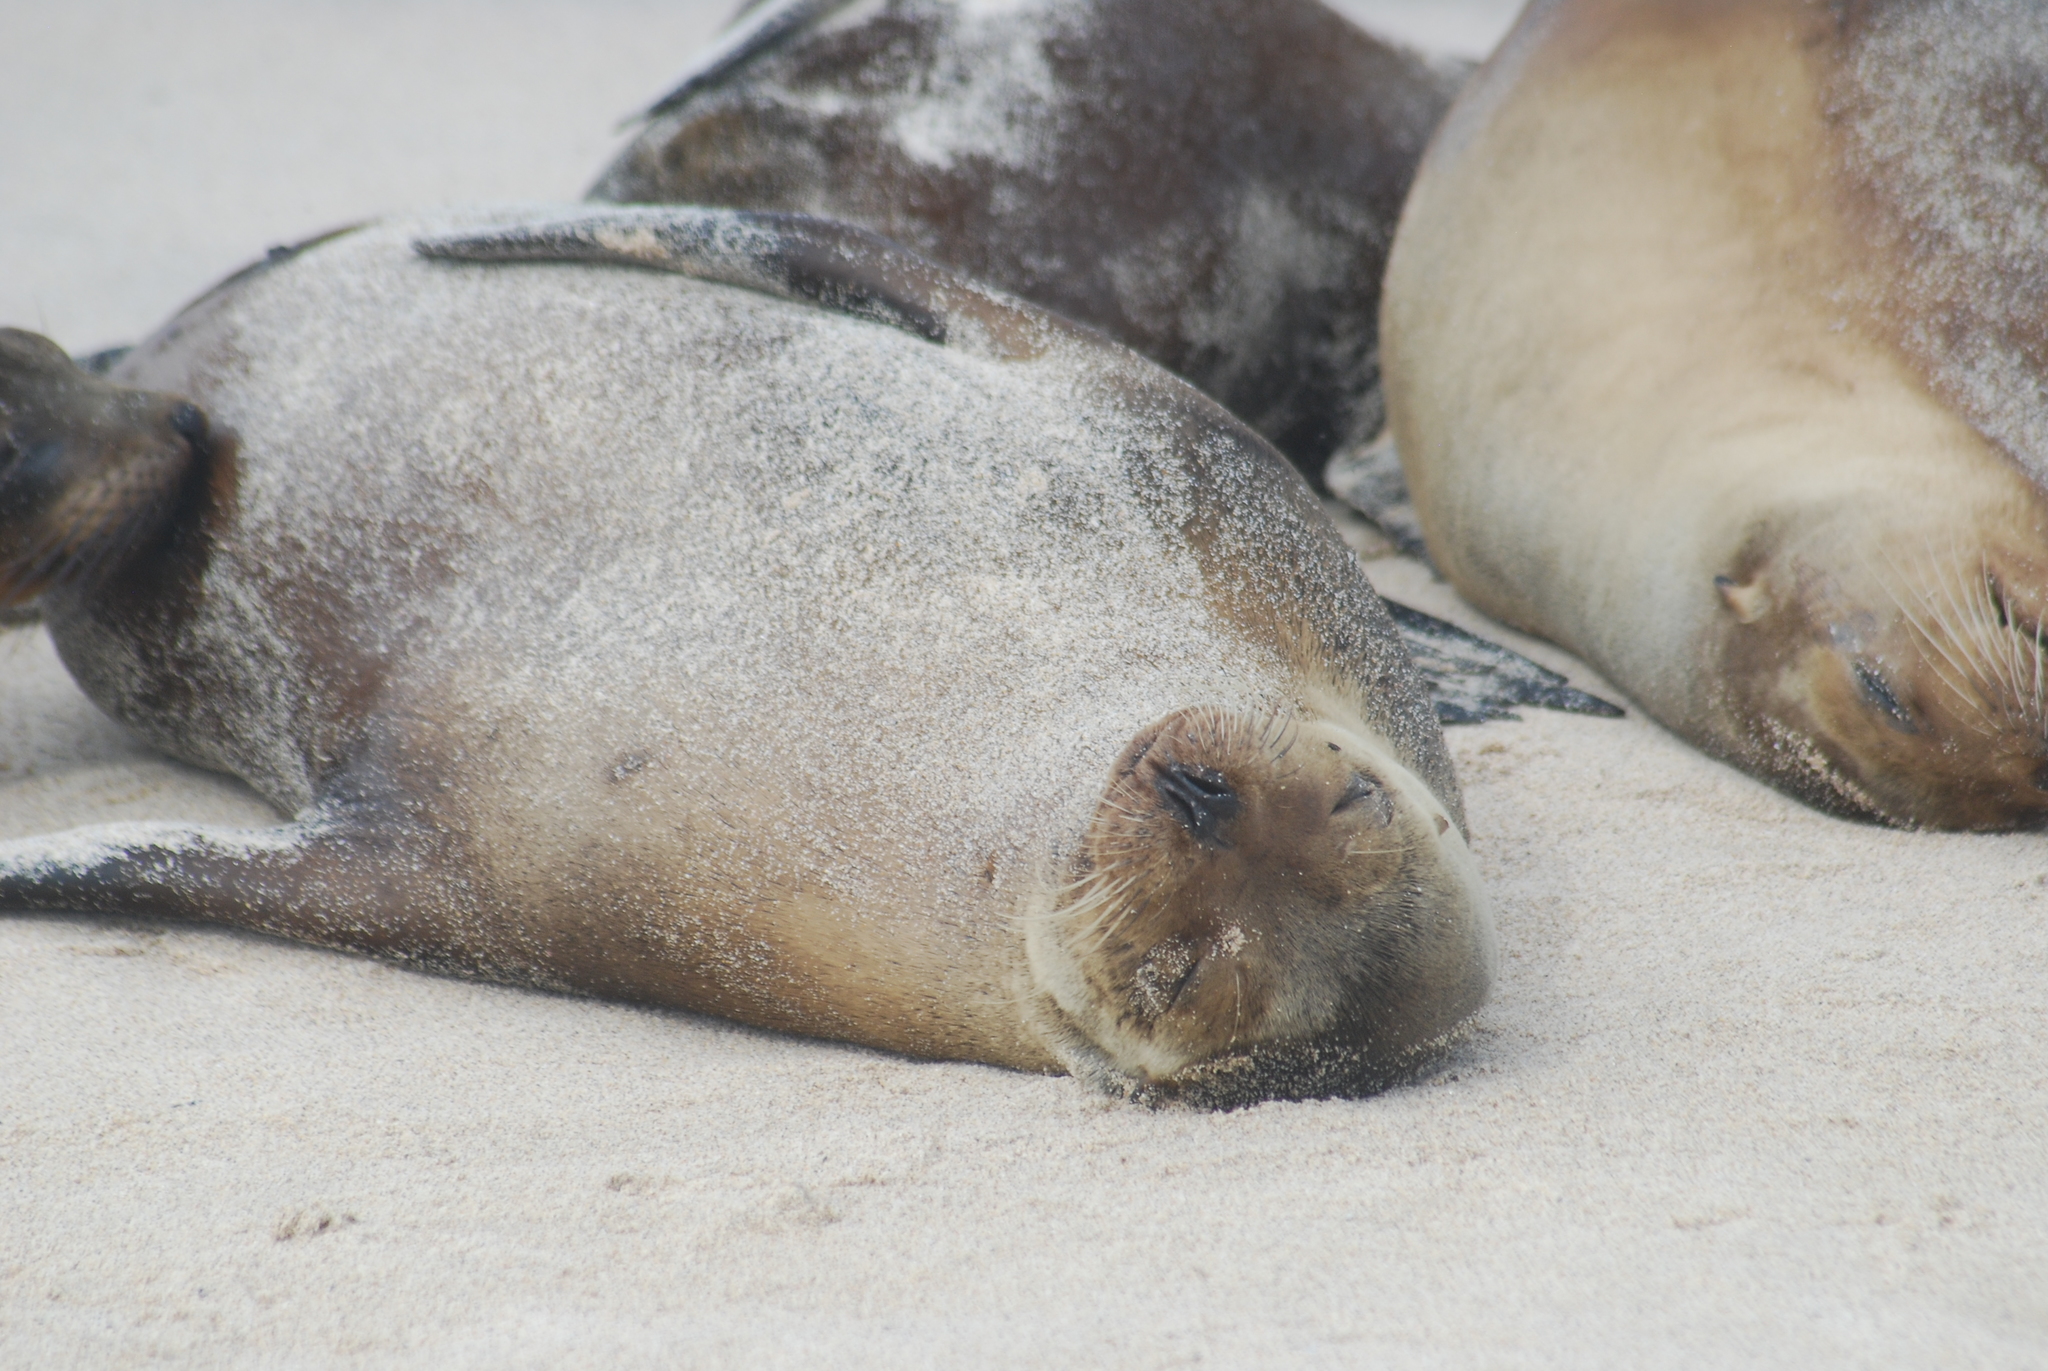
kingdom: Animalia
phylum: Chordata
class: Mammalia
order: Carnivora
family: Otariidae
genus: Zalophus
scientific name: Zalophus wollebaeki
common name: Galapagos sea lion
